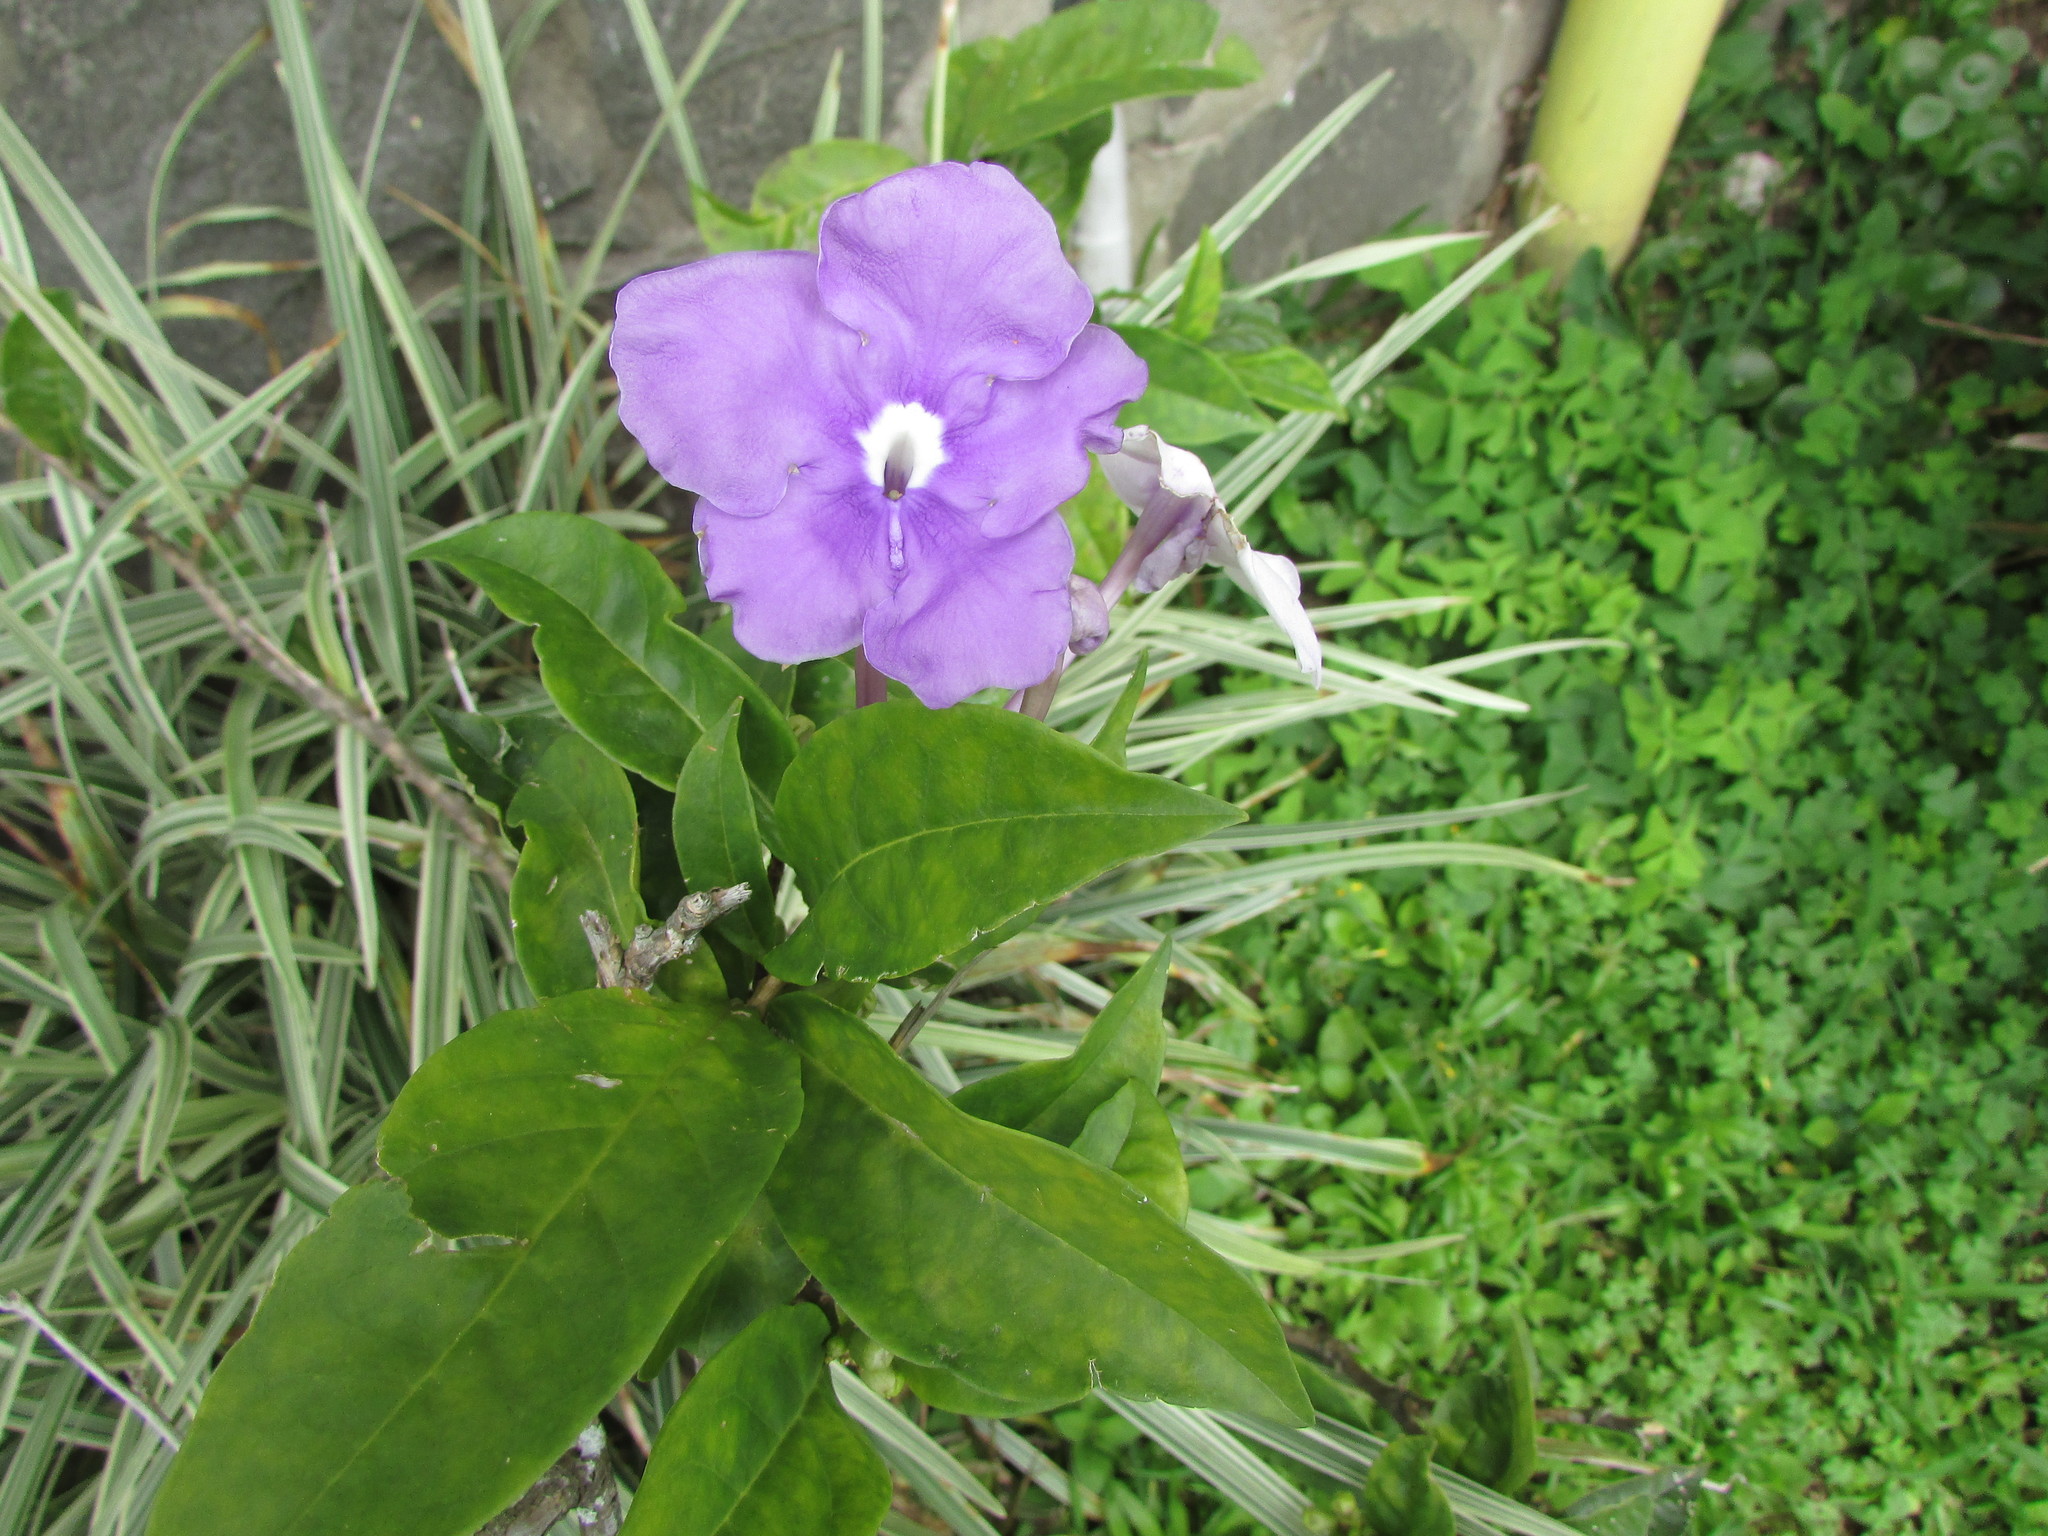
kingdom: Plantae
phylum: Tracheophyta
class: Magnoliopsida
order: Solanales
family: Solanaceae
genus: Brunfelsia
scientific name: Brunfelsia pauciflora
